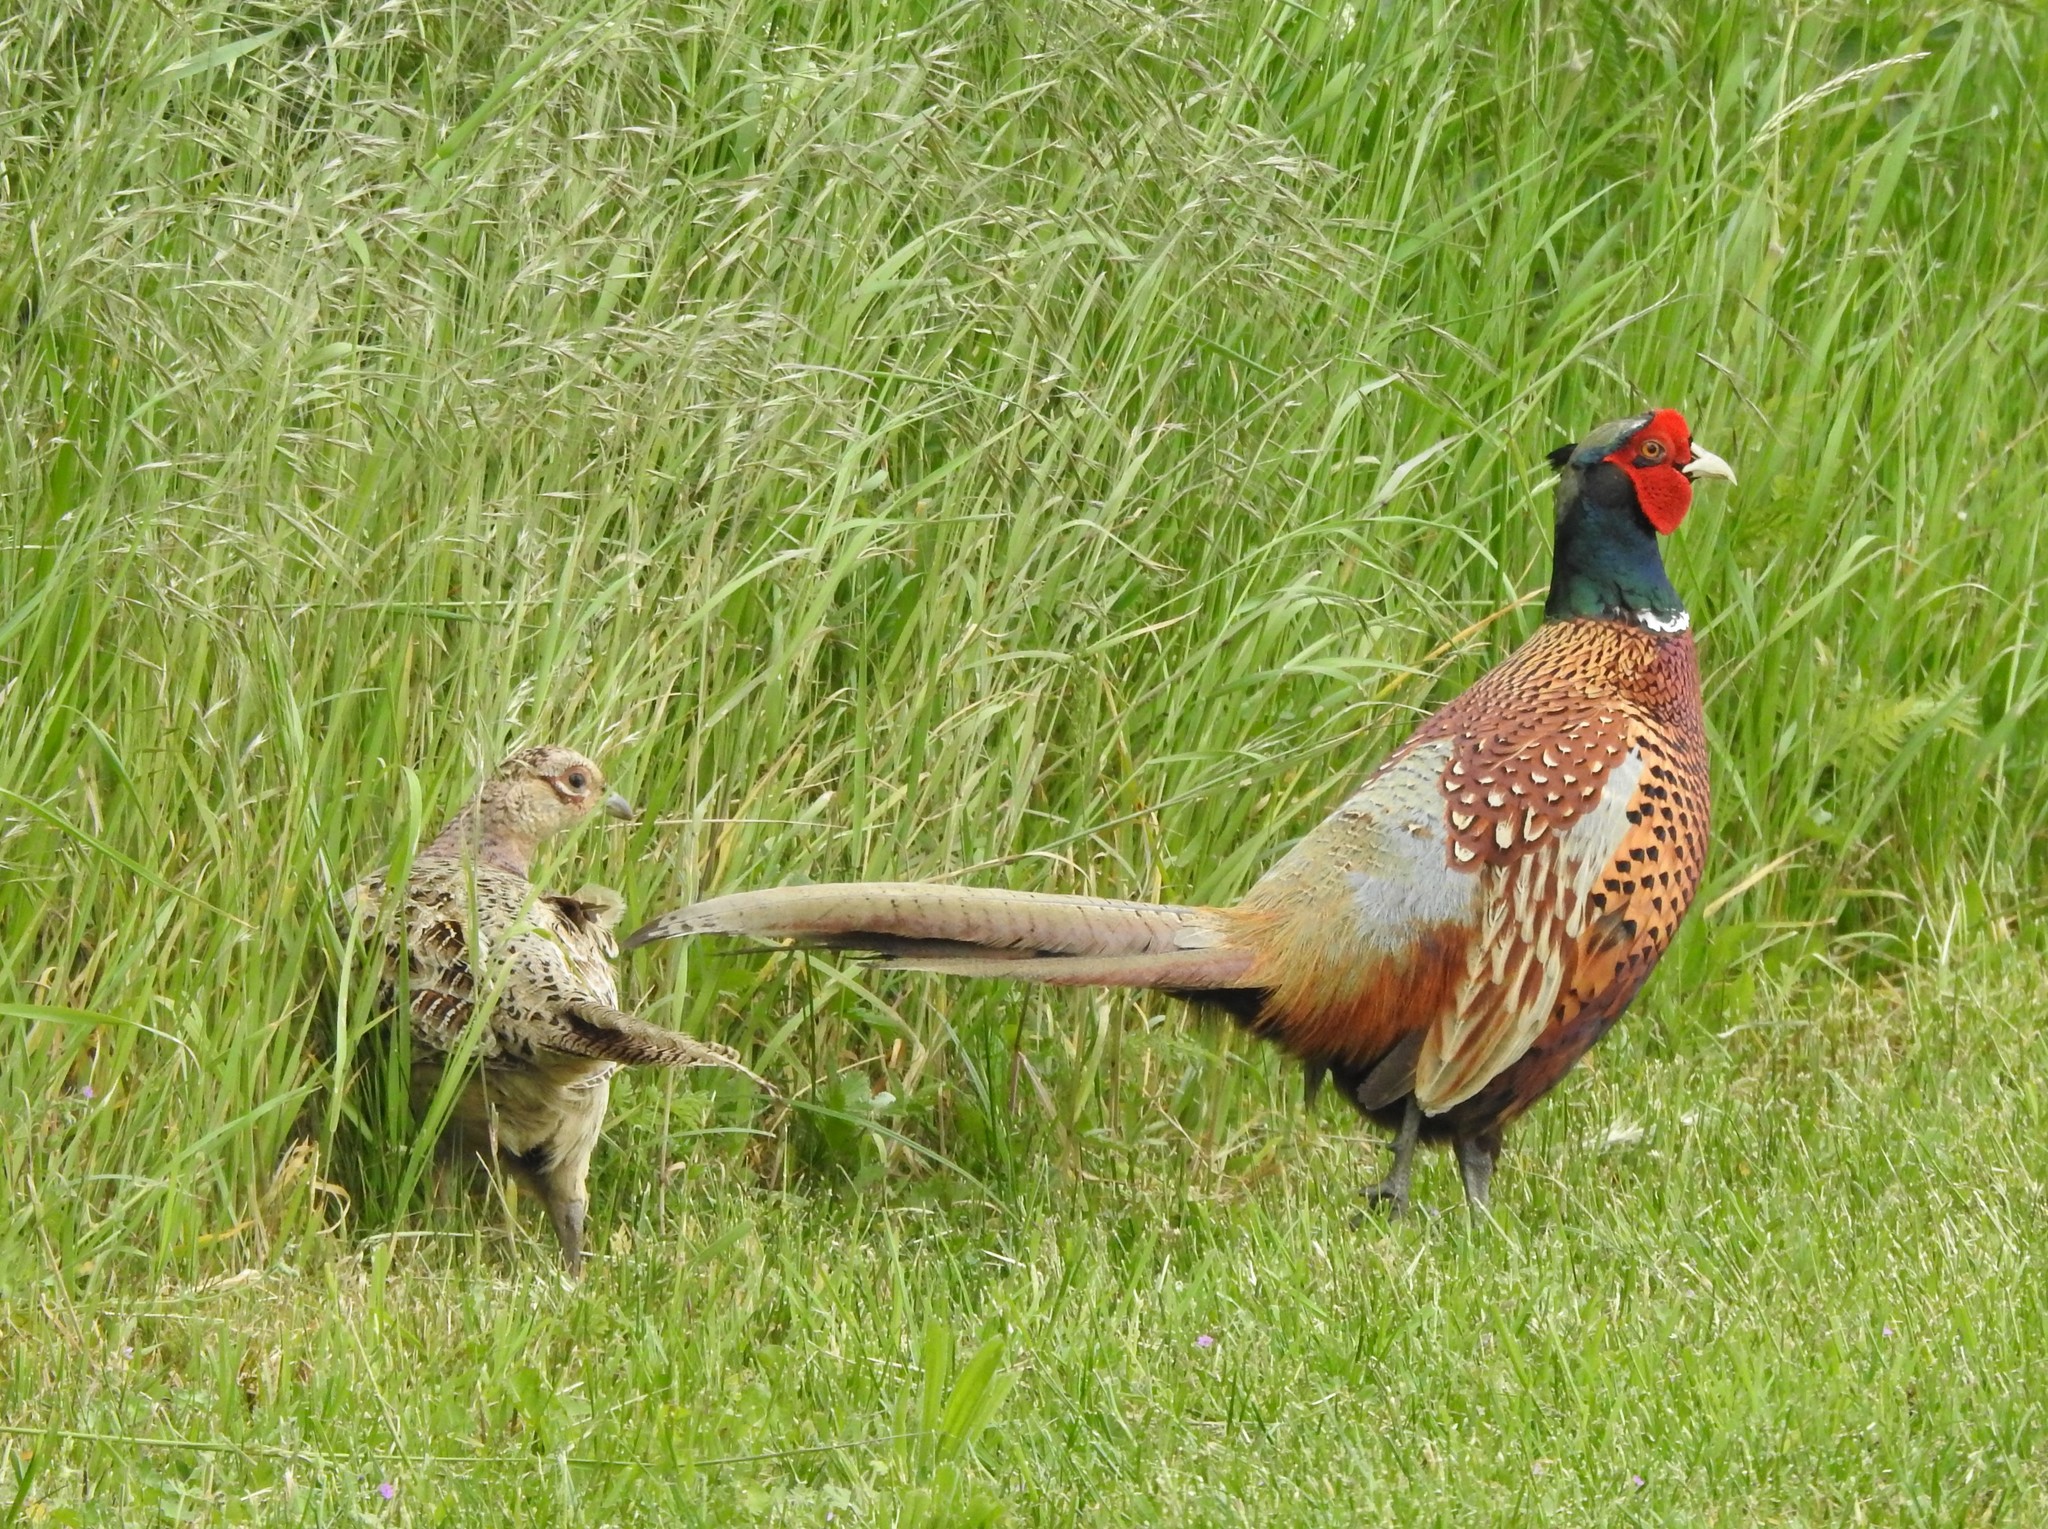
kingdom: Animalia
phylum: Chordata
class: Aves
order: Galliformes
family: Phasianidae
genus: Phasianus
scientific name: Phasianus colchicus
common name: Common pheasant
